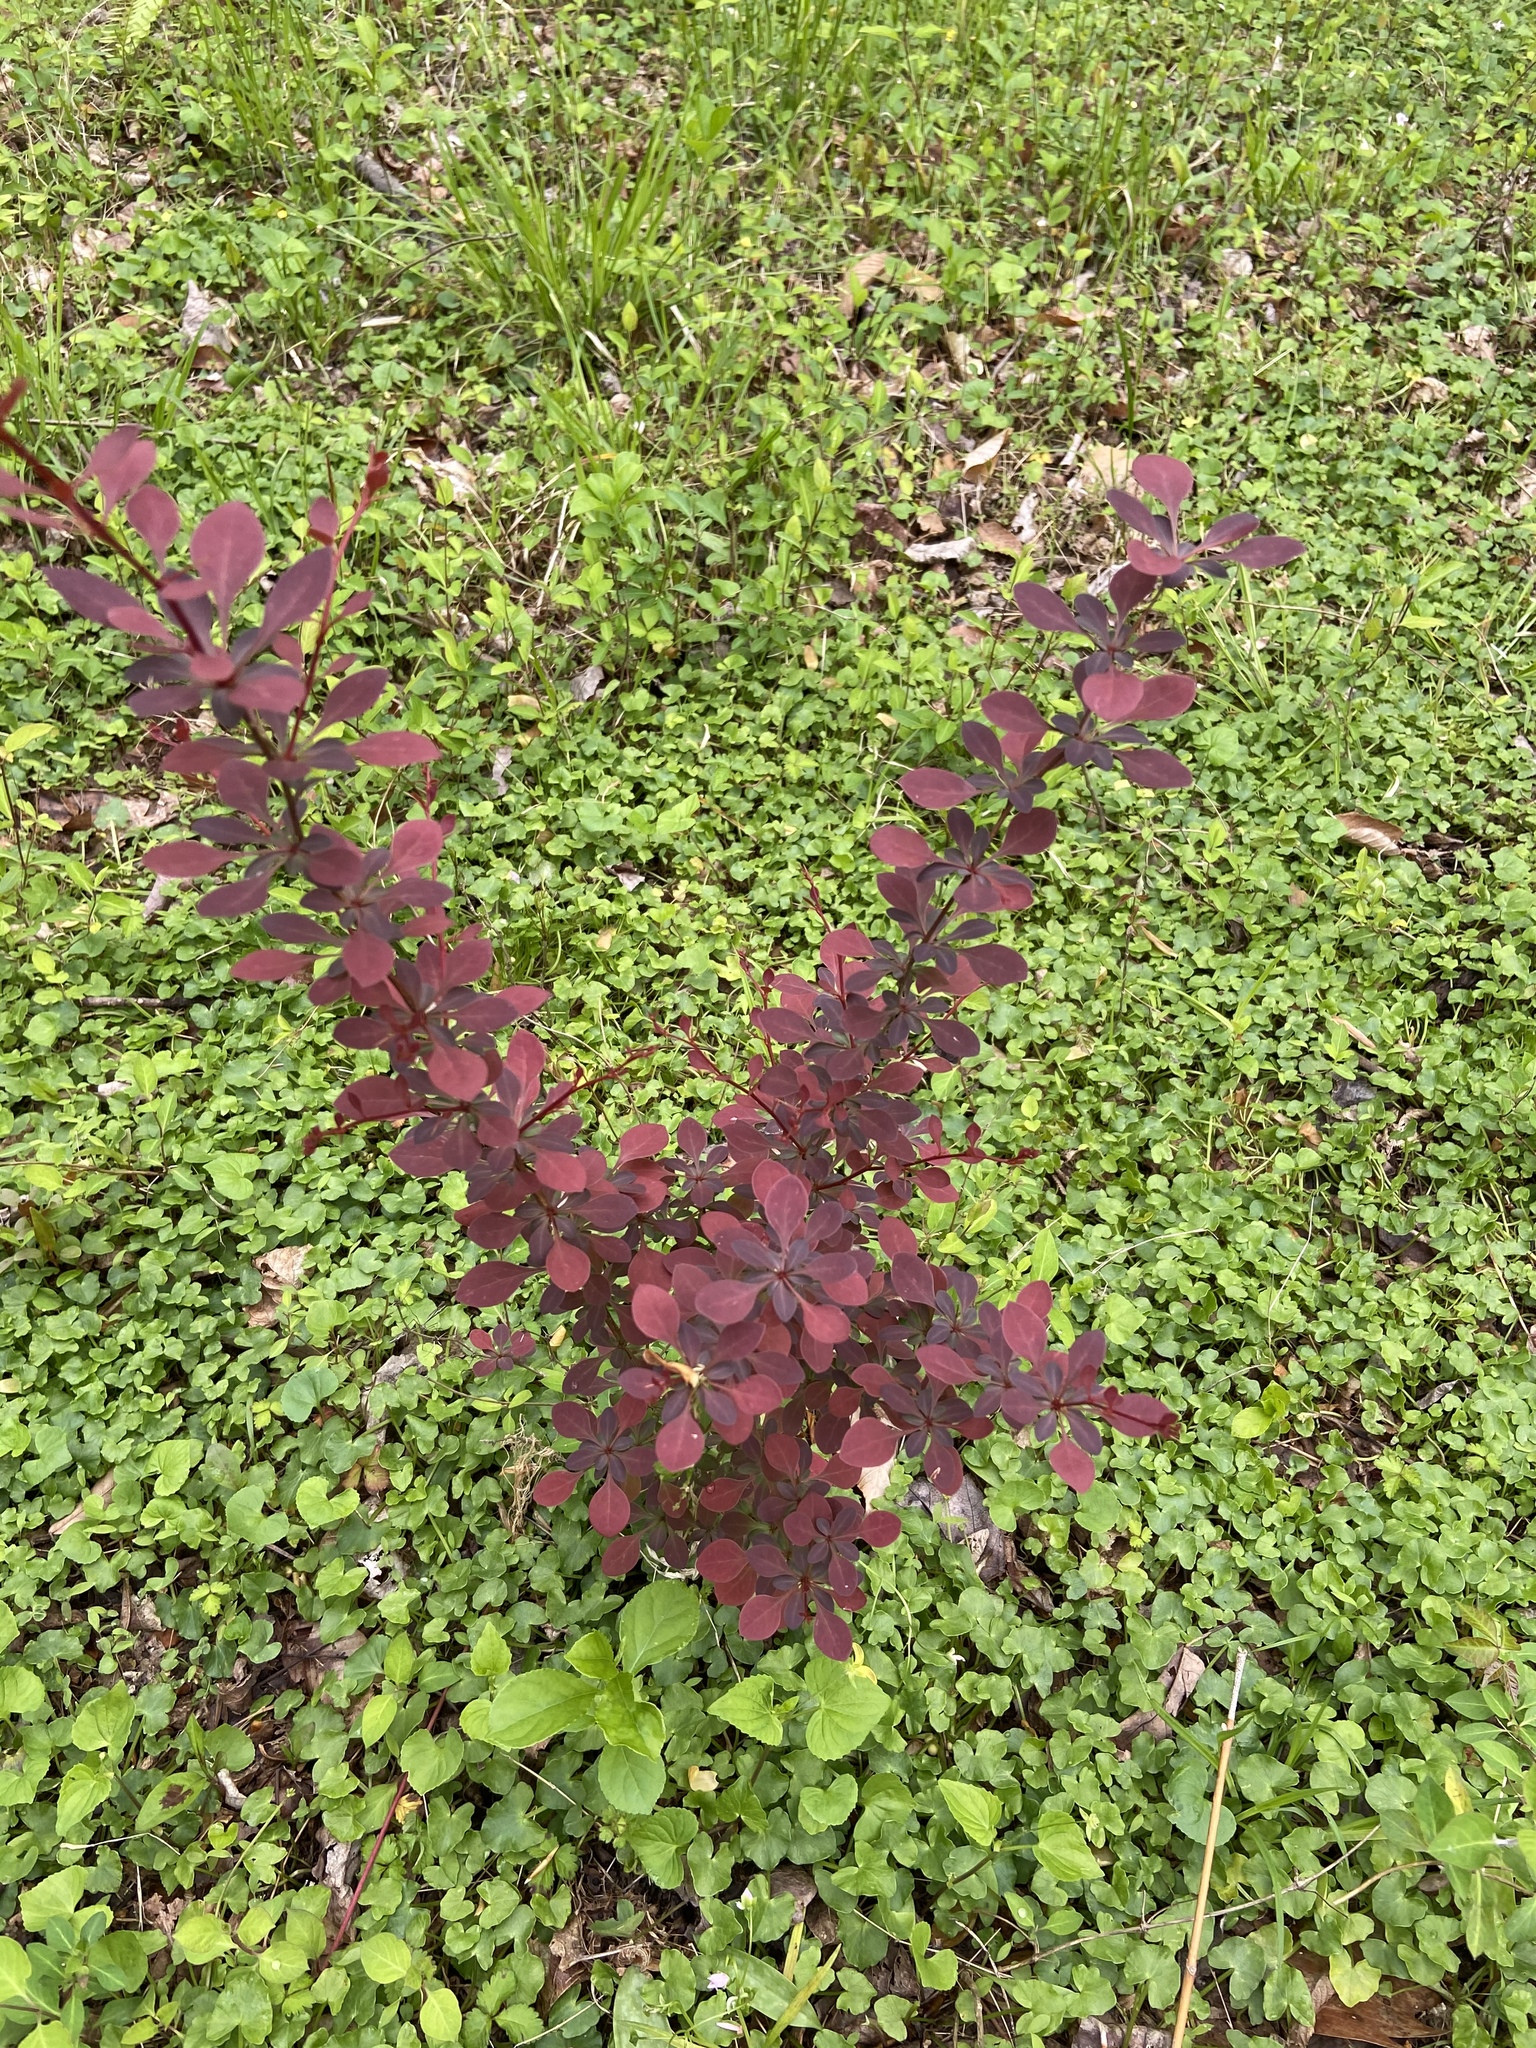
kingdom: Plantae
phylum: Tracheophyta
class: Magnoliopsida
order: Ranunculales
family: Berberidaceae
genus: Berberis
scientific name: Berberis thunbergii
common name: Japanese barberry
